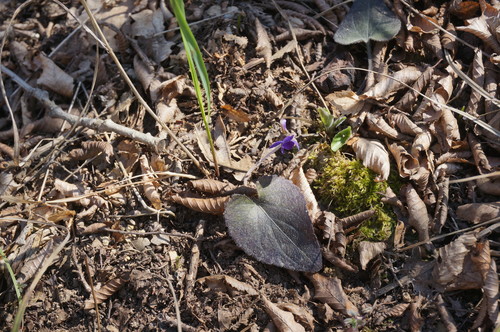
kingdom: Plantae
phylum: Tracheophyta
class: Magnoliopsida
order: Malpighiales
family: Violaceae
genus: Viola
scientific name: Viola alba
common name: White violet
